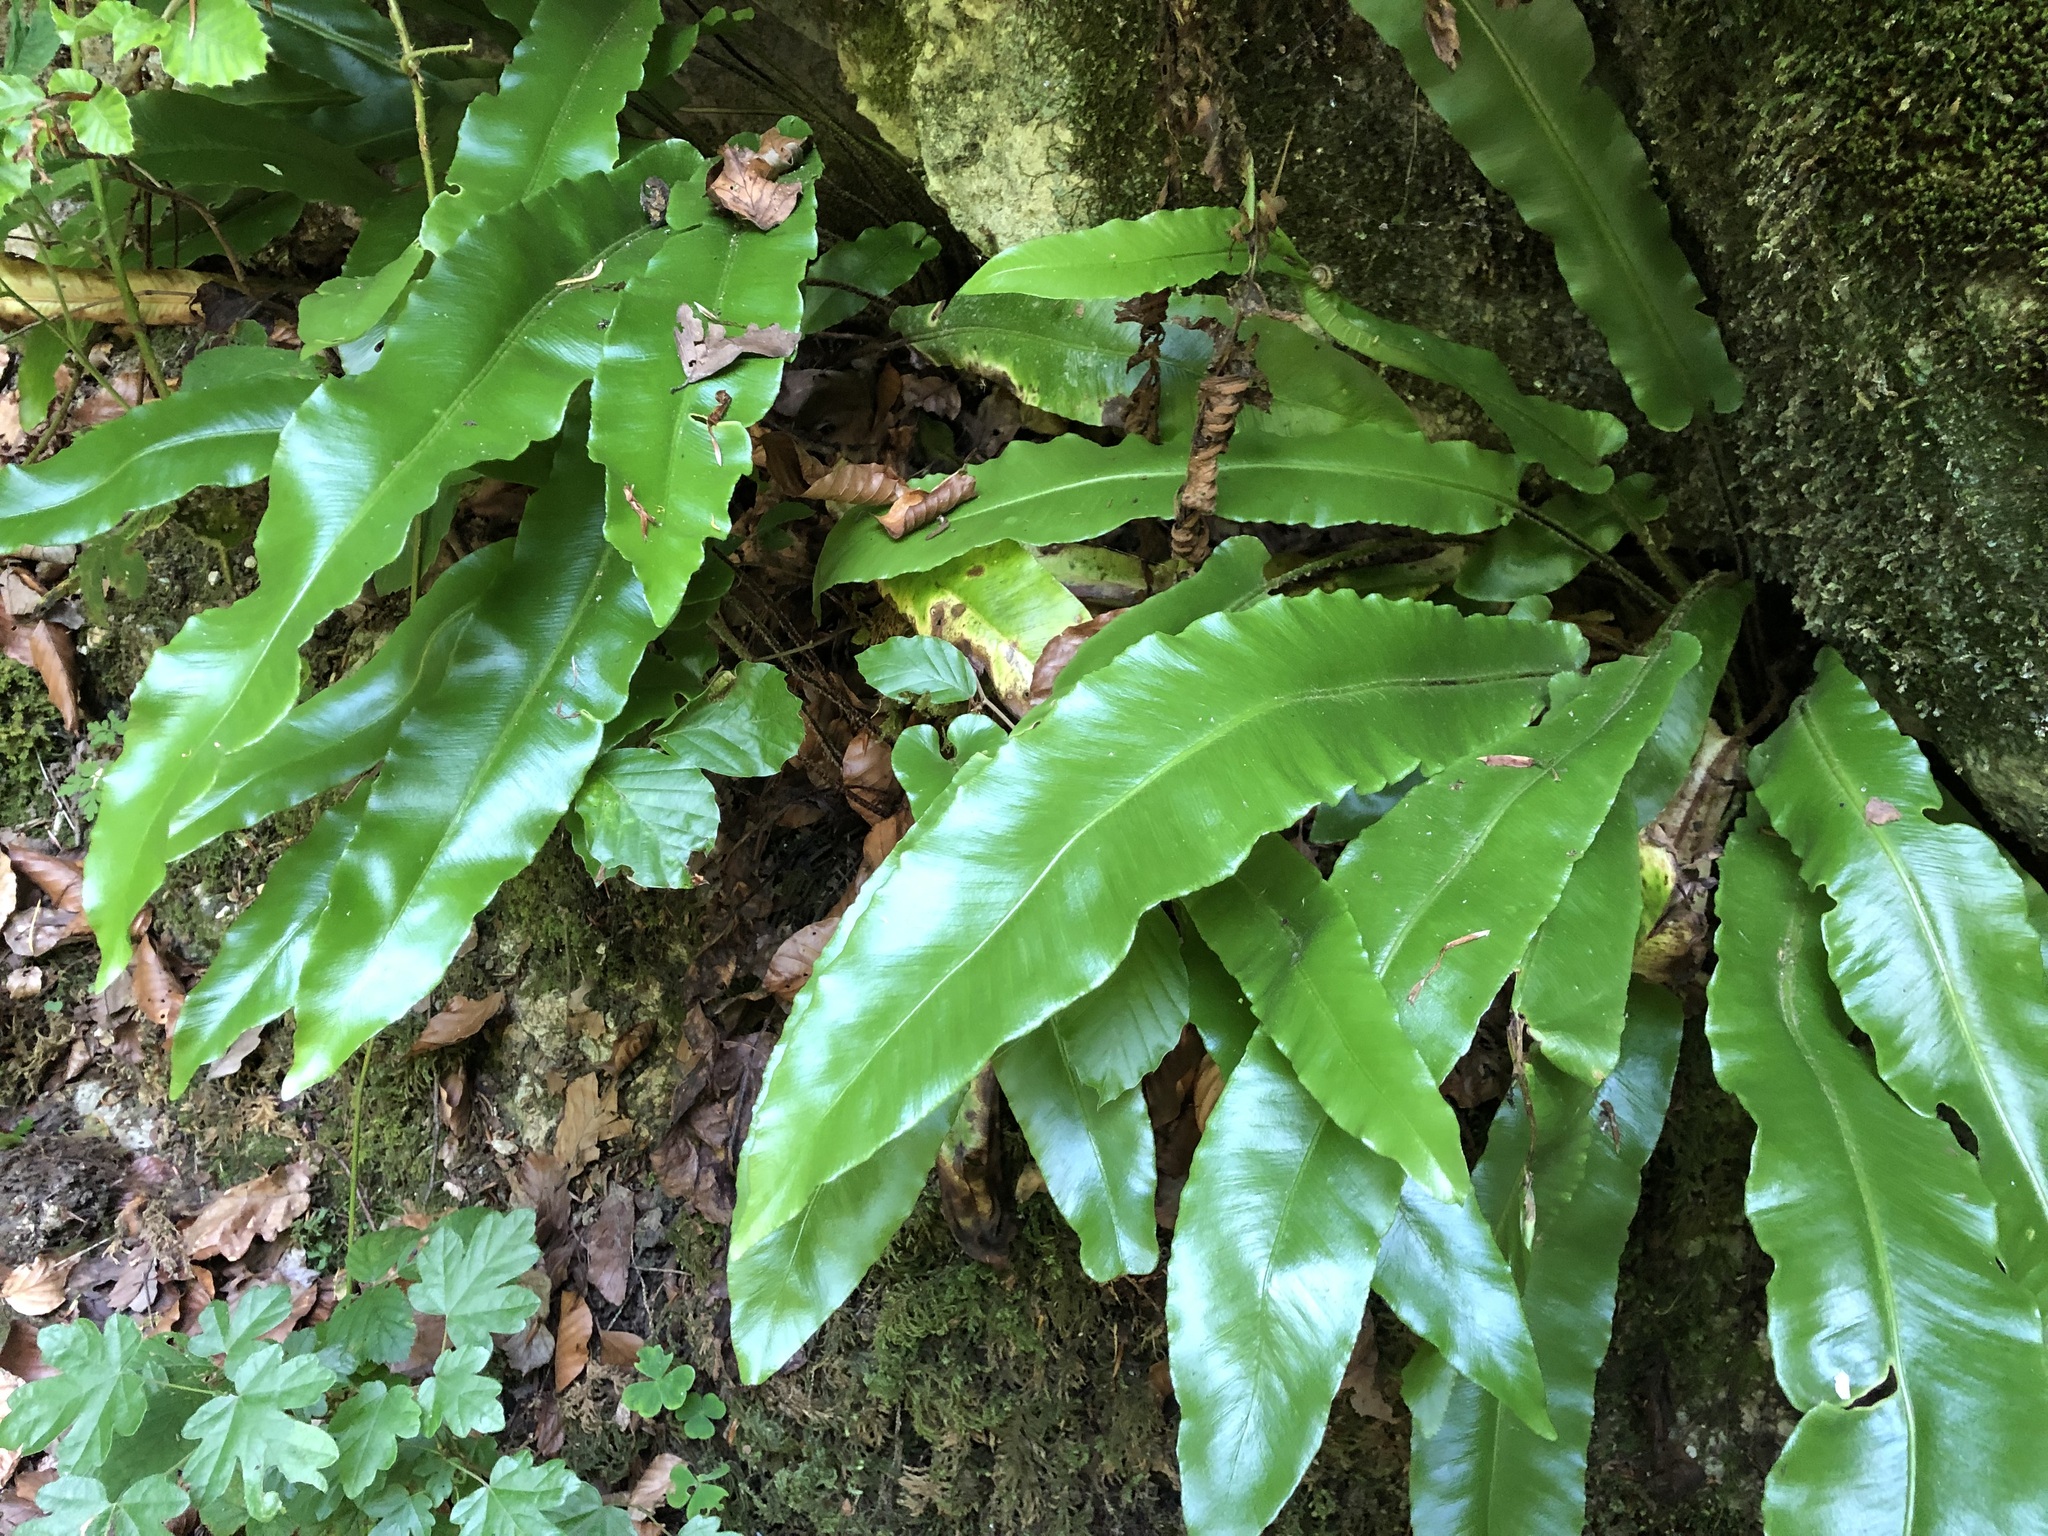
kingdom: Plantae
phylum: Tracheophyta
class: Polypodiopsida
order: Polypodiales
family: Aspleniaceae
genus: Asplenium
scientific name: Asplenium scolopendrium
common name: Hart's-tongue fern
